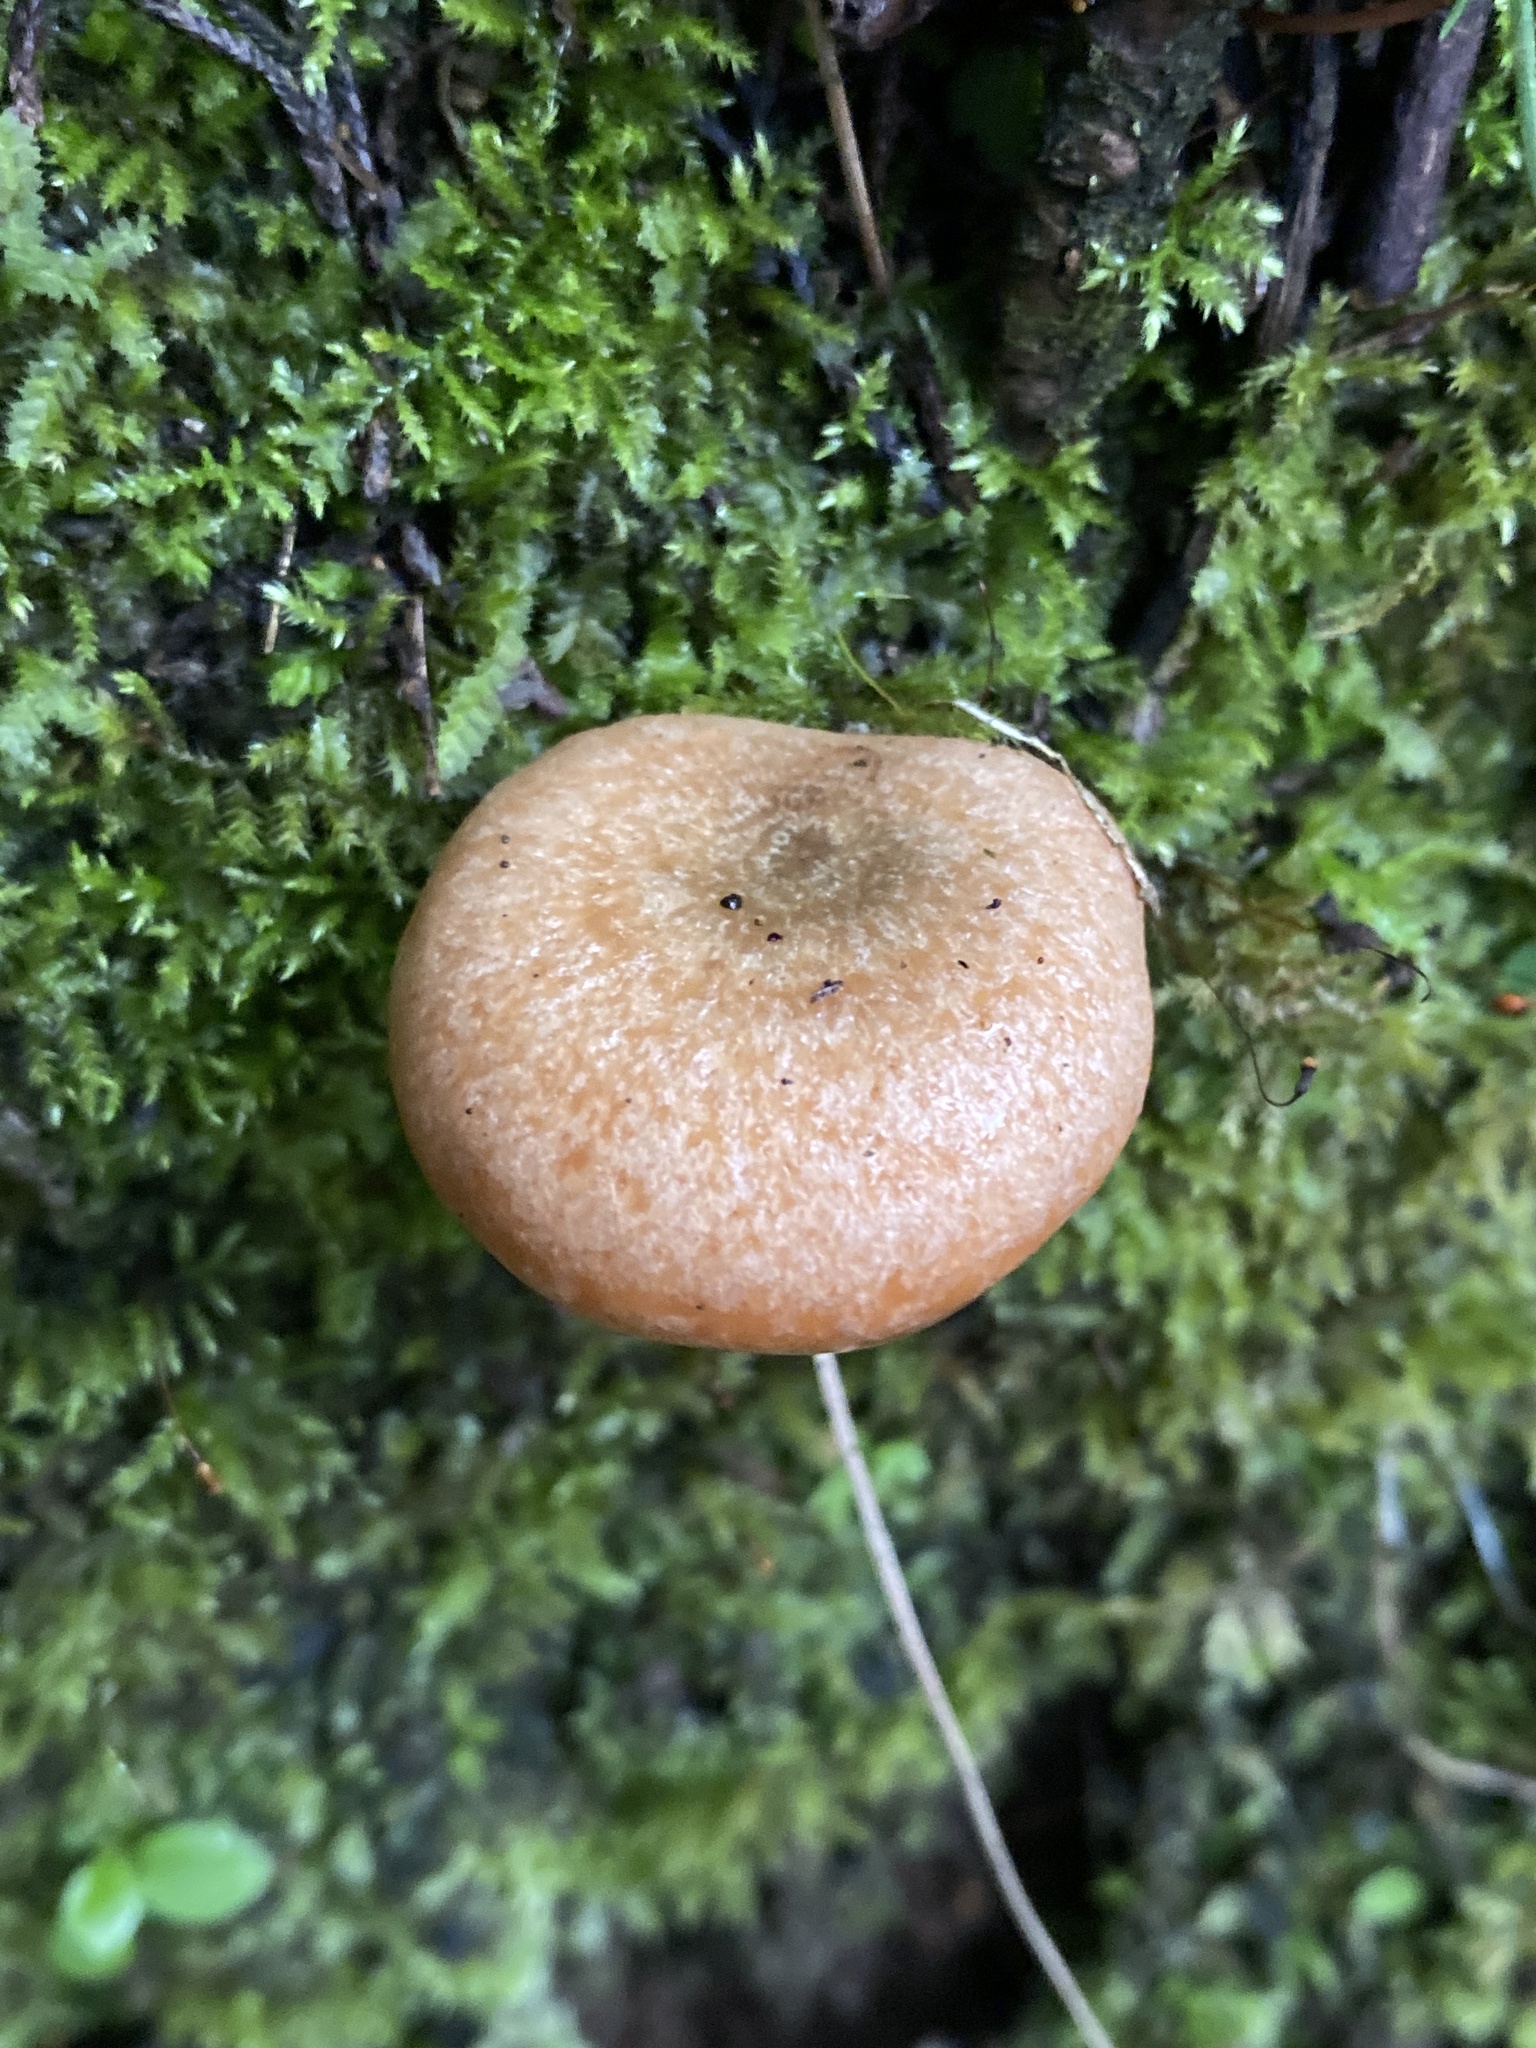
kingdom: Fungi
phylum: Basidiomycota
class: Agaricomycetes
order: Russulales
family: Russulaceae
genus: Lactarius
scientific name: Lactarius deliciosus
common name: Saffron milk-cap
